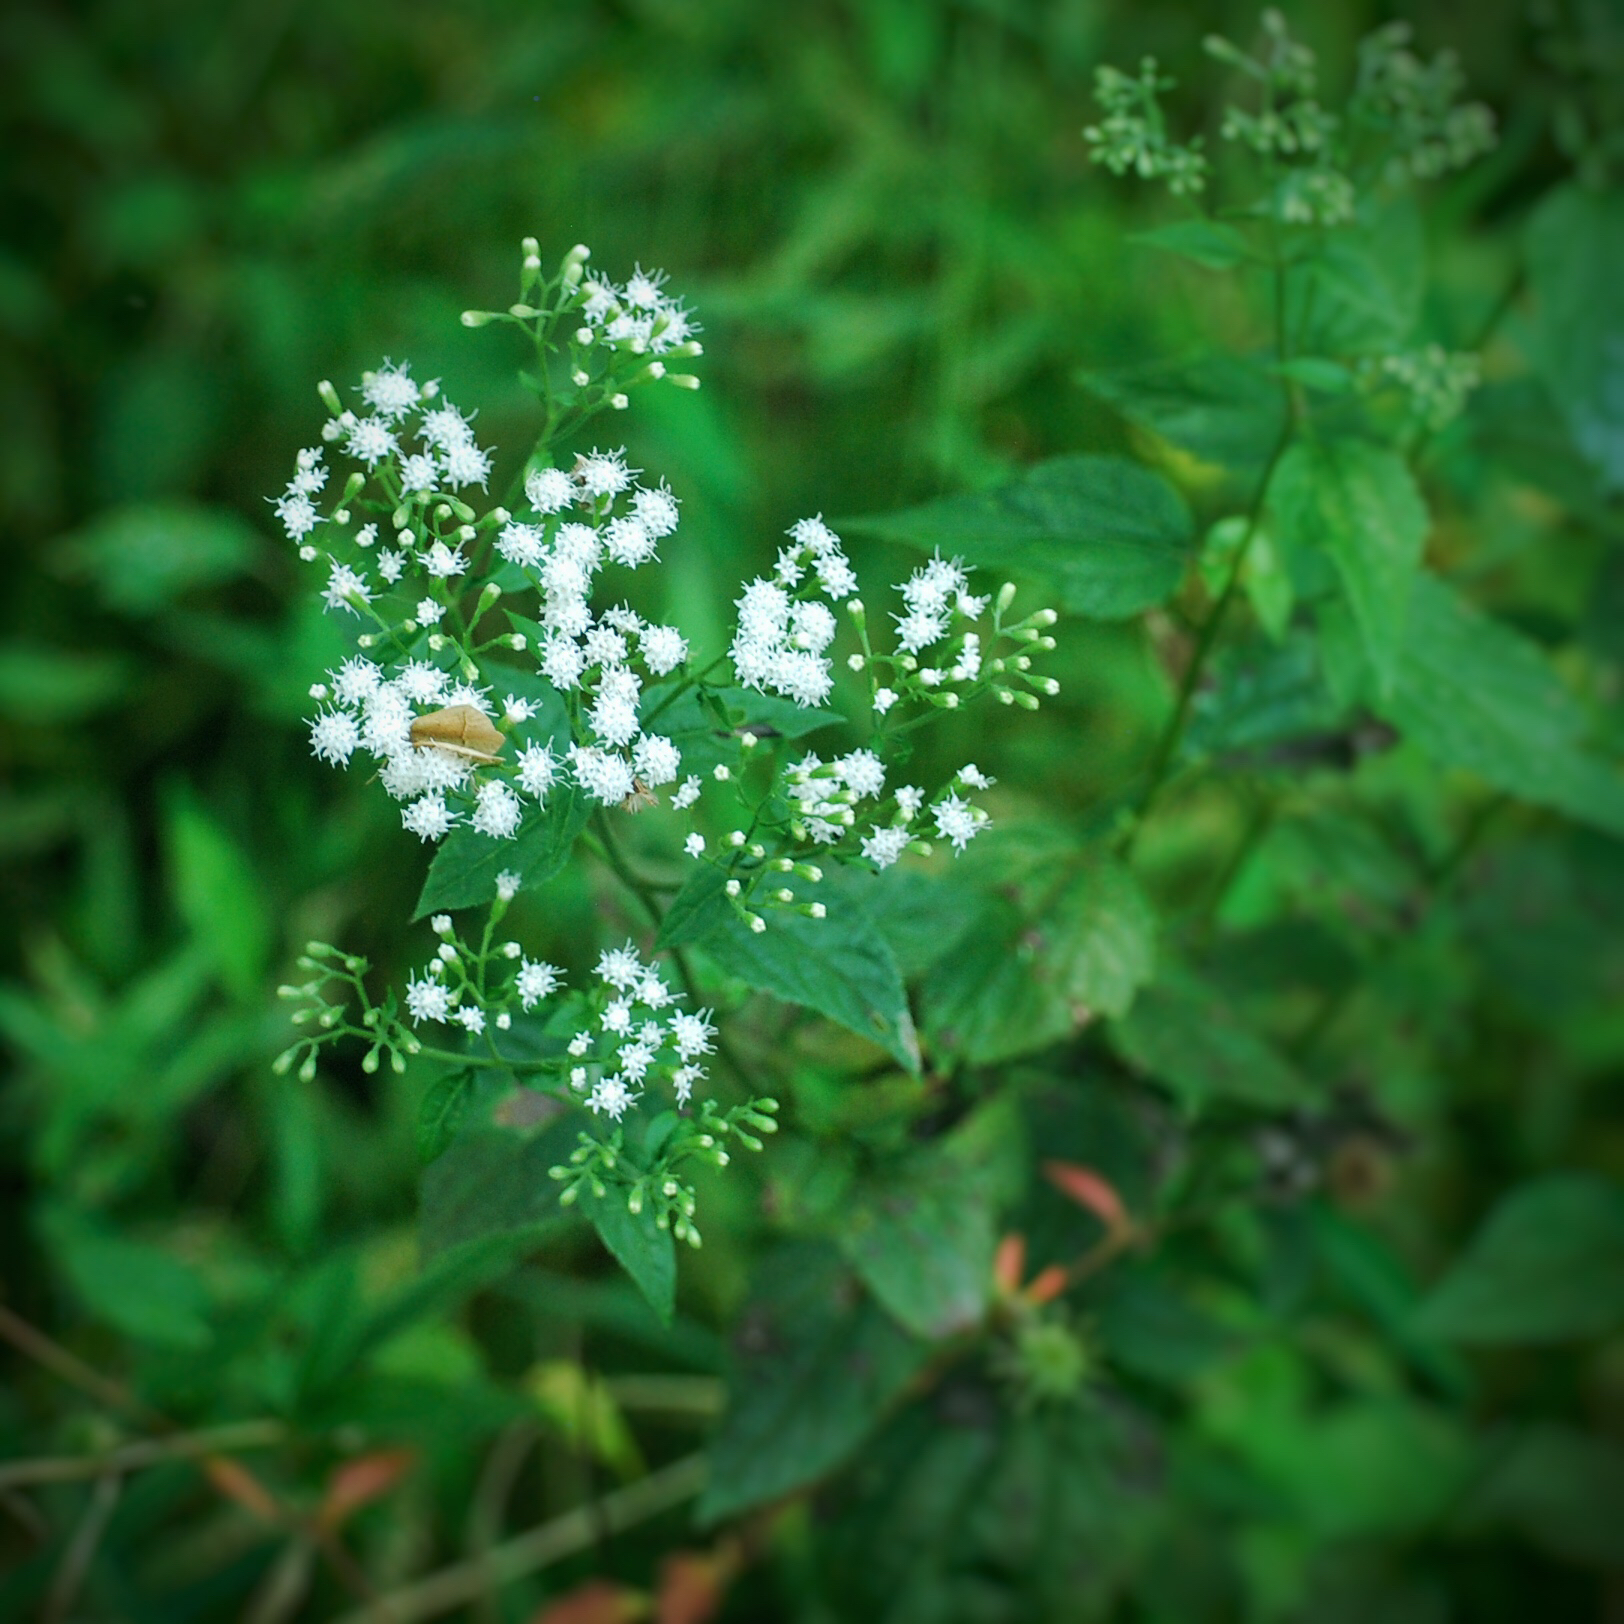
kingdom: Plantae
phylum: Tracheophyta
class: Magnoliopsida
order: Asterales
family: Asteraceae
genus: Ageratina
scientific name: Ageratina altissima
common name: White snakeroot
